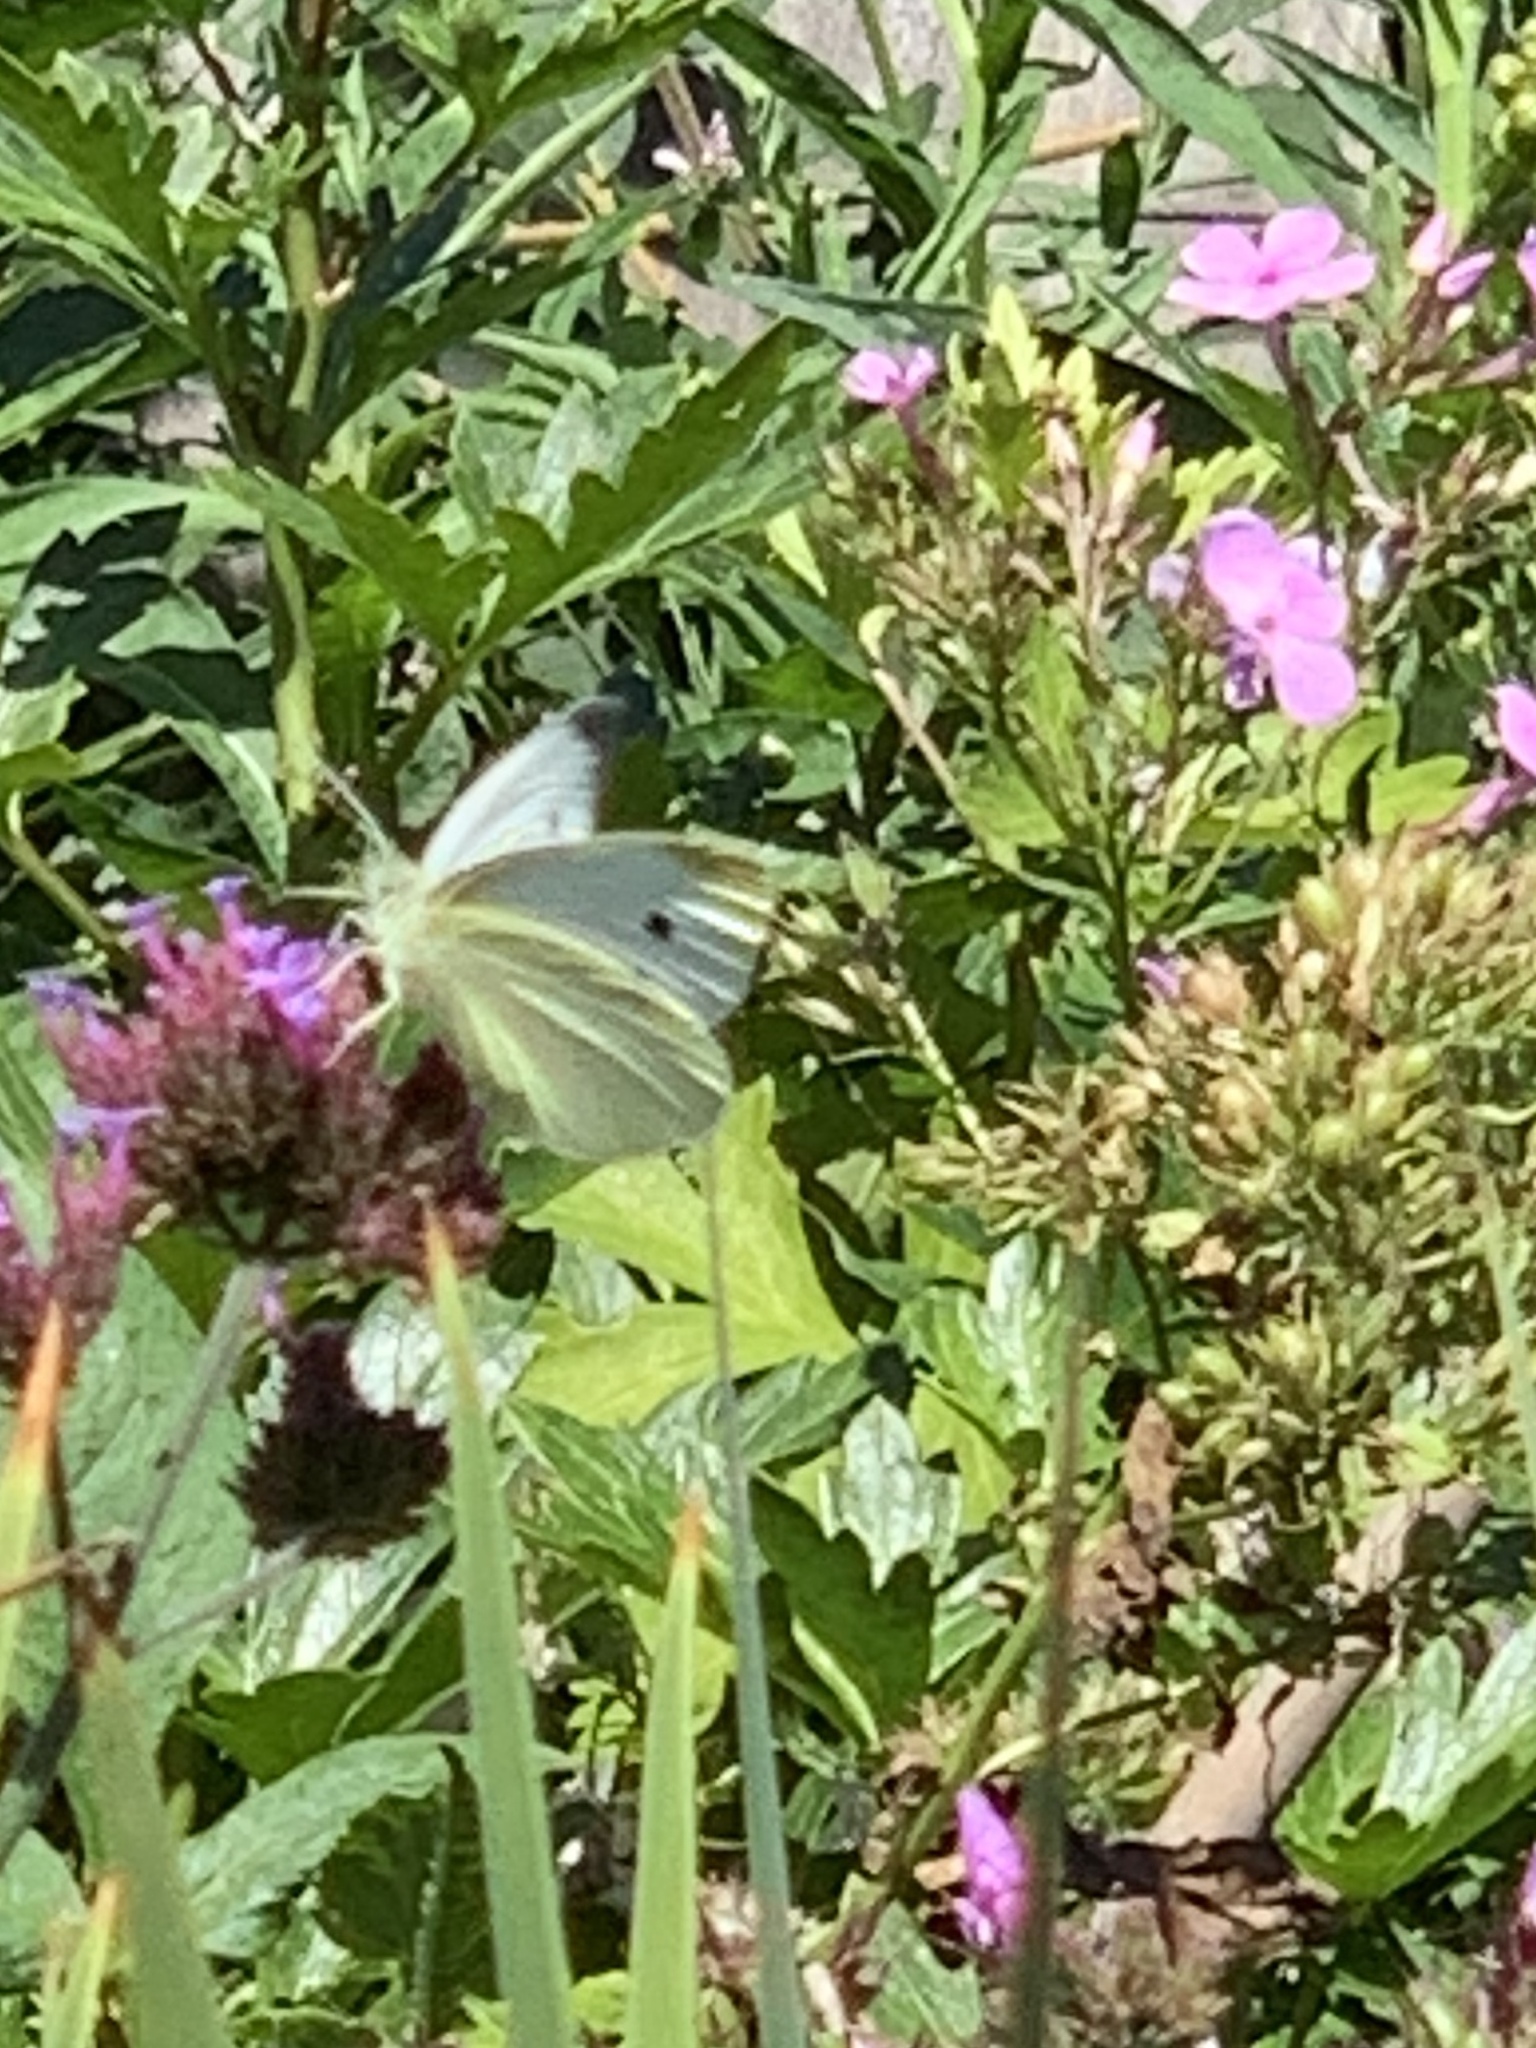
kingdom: Animalia
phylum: Arthropoda
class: Insecta
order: Lepidoptera
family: Pieridae
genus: Pieris
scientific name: Pieris rapae
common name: Small white
